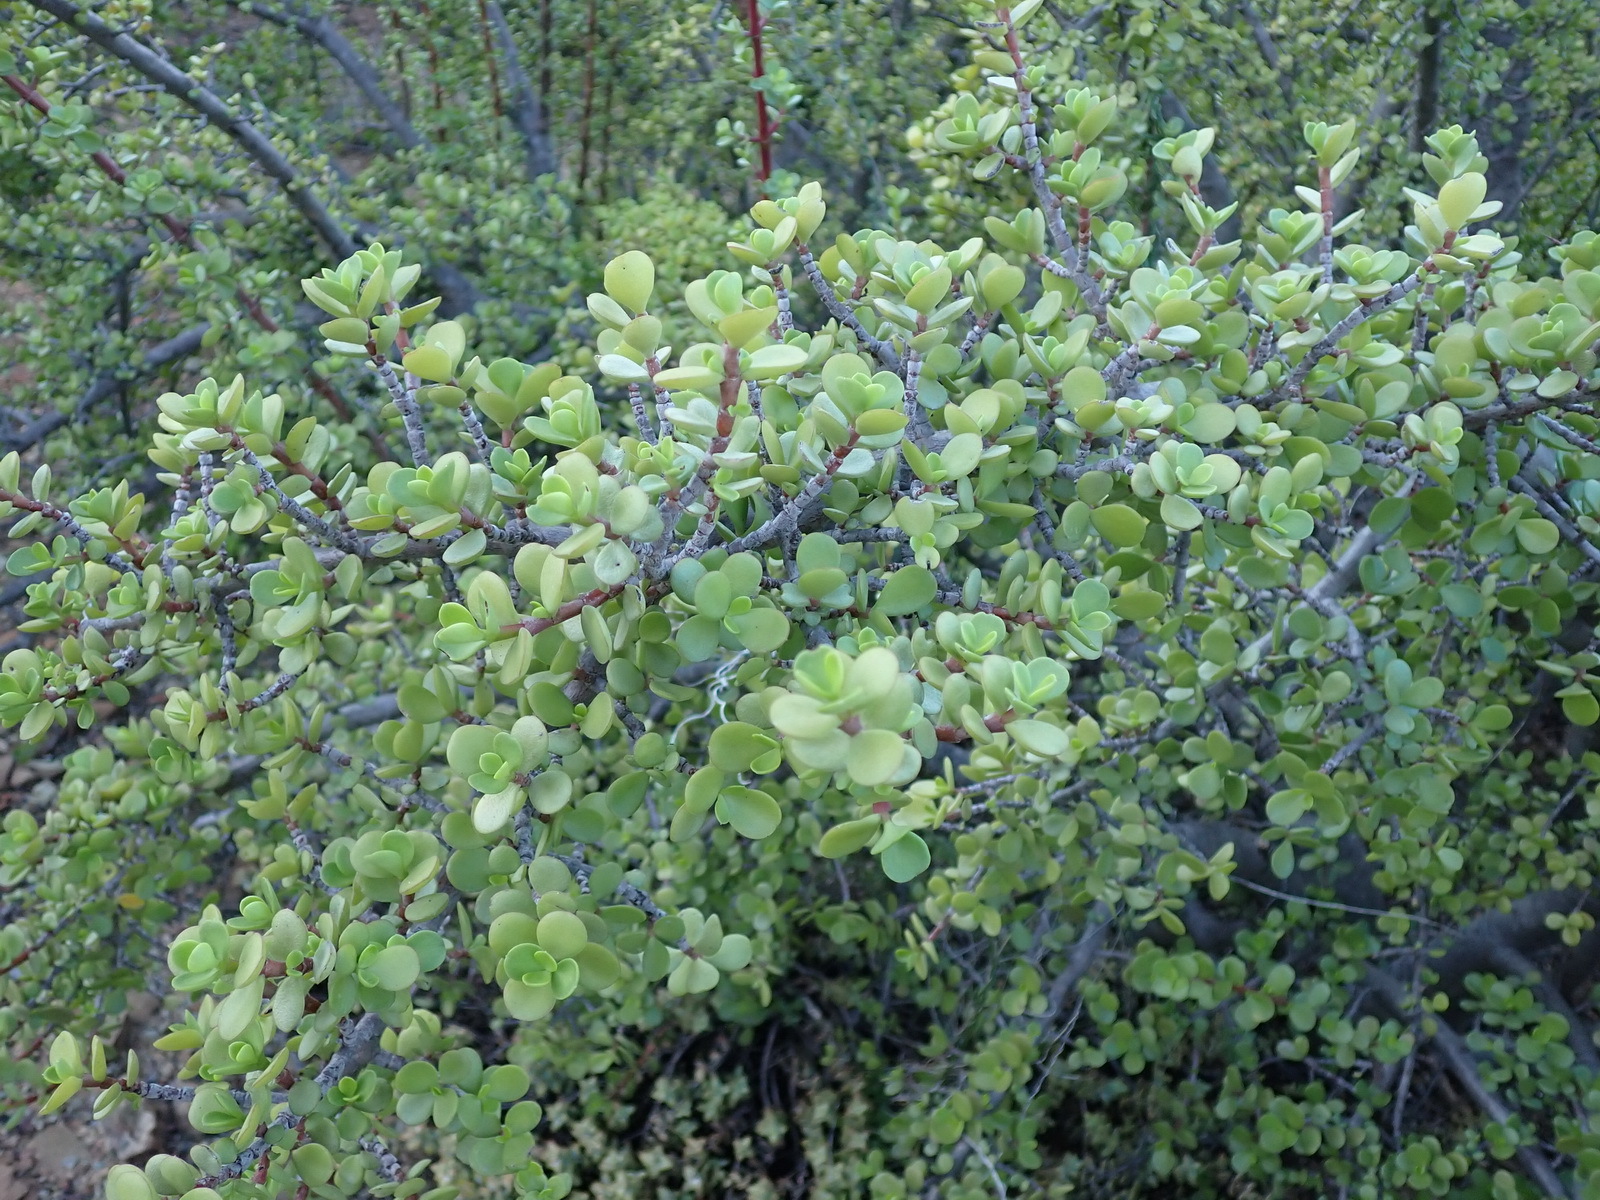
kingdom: Plantae
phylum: Tracheophyta
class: Magnoliopsida
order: Caryophyllales
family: Didiereaceae
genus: Portulacaria
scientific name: Portulacaria afra
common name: Elephant-bush
